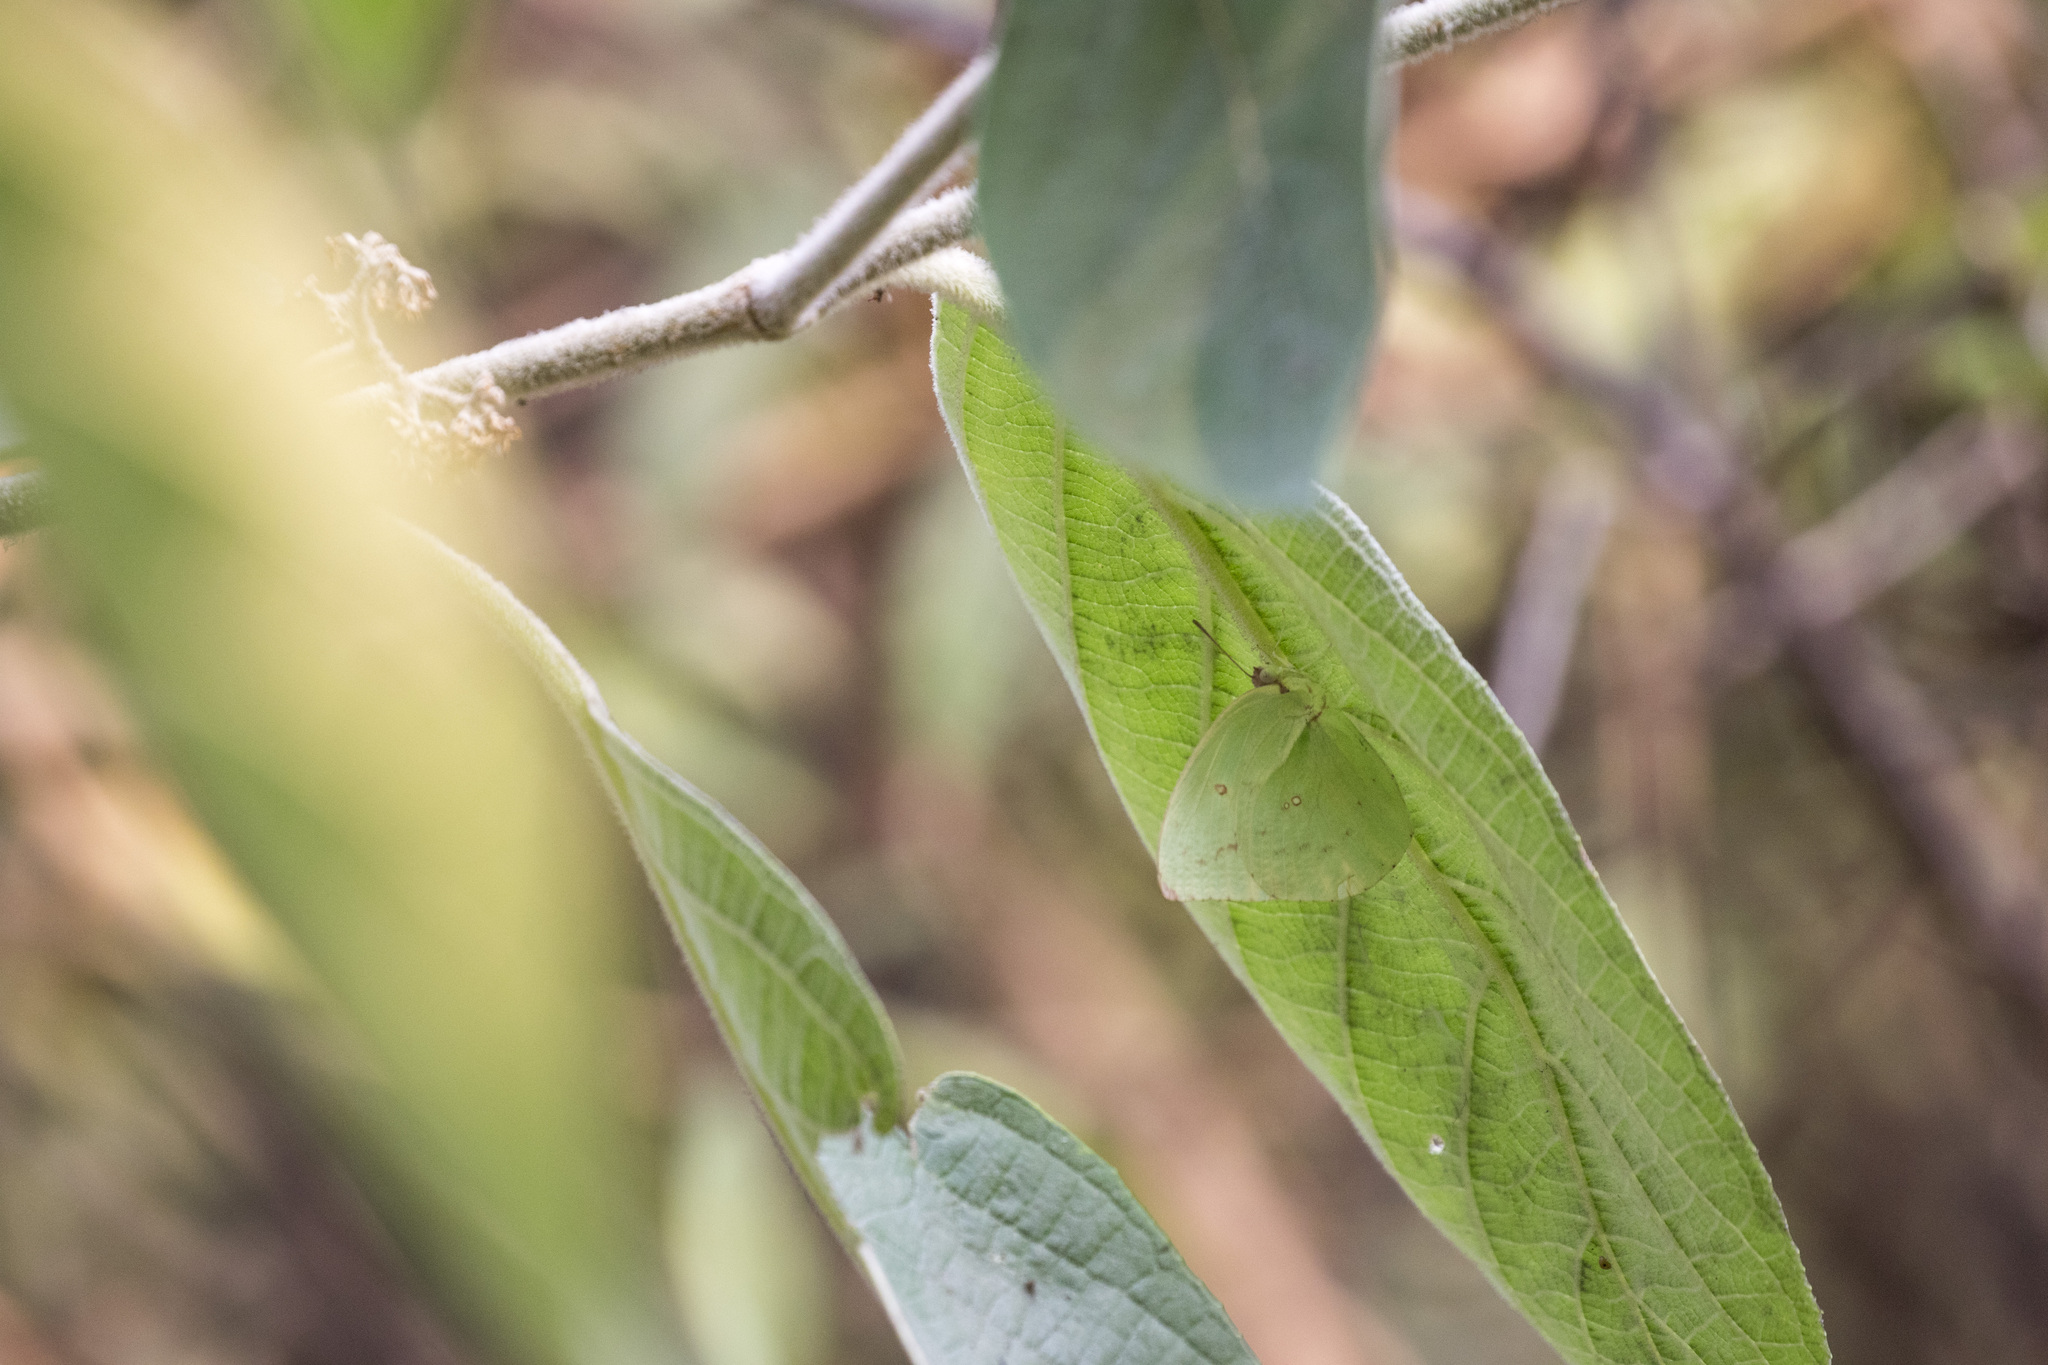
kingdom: Animalia
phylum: Arthropoda
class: Insecta
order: Lepidoptera
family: Pieridae
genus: Catopsilia
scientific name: Catopsilia pomona
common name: Common emigrant
